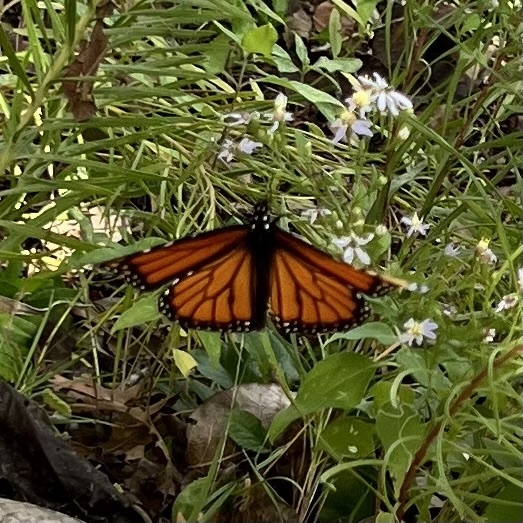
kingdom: Animalia
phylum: Arthropoda
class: Insecta
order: Lepidoptera
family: Nymphalidae
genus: Danaus
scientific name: Danaus plexippus
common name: Monarch
